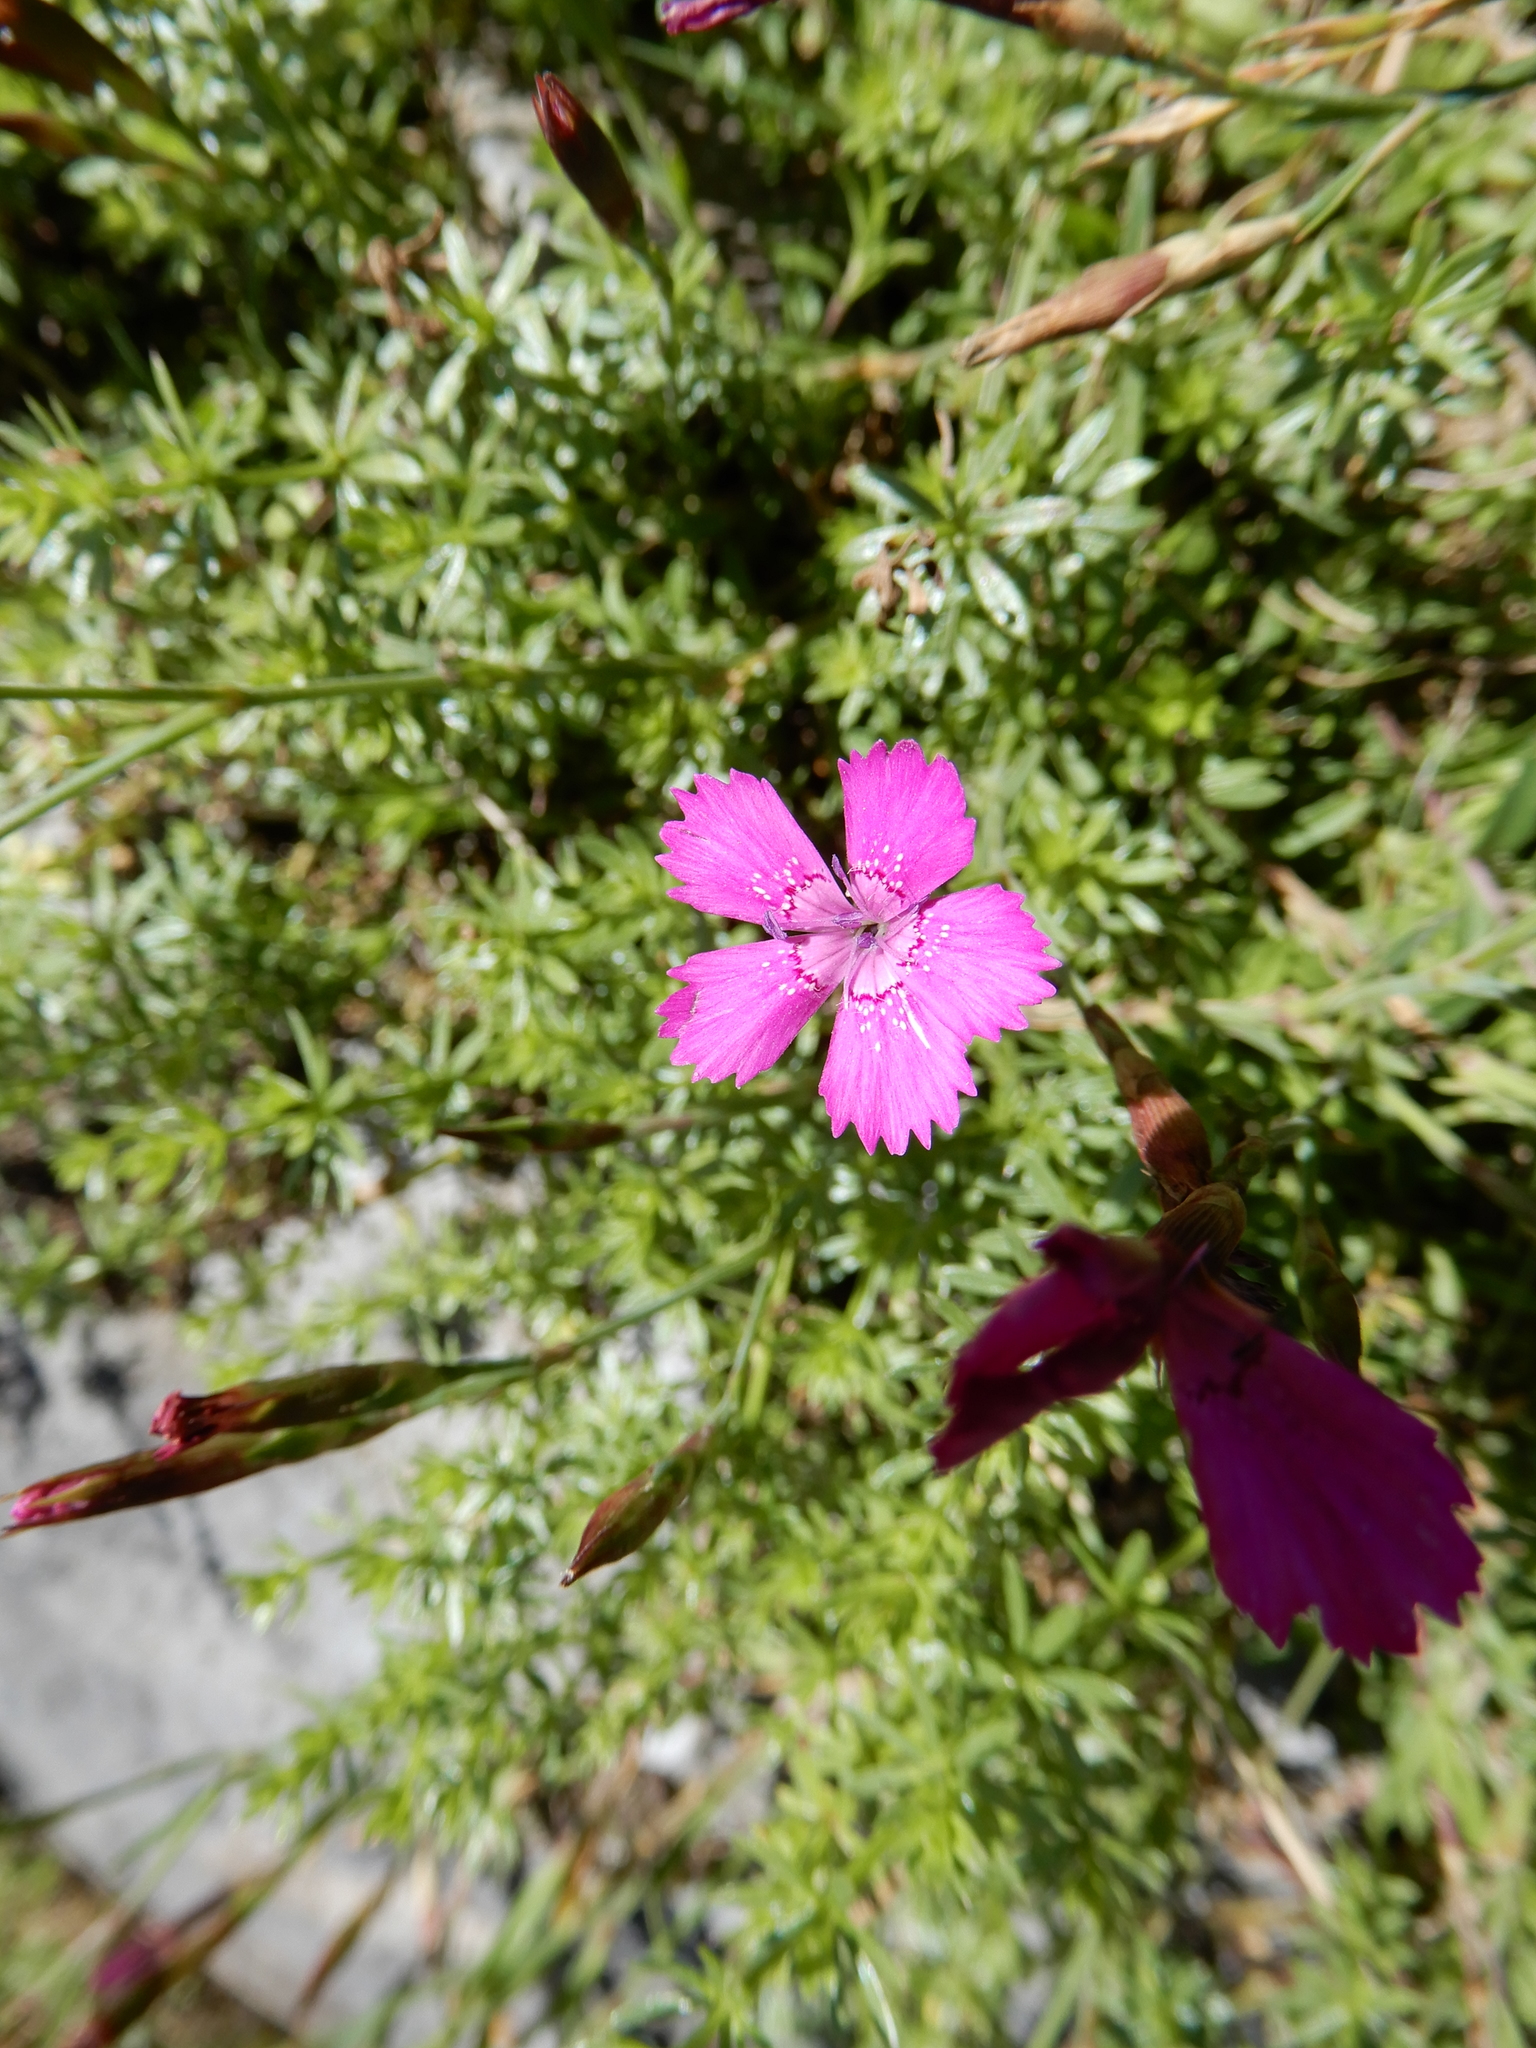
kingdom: Plantae
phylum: Tracheophyta
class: Magnoliopsida
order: Caryophyllales
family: Caryophyllaceae
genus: Dianthus
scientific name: Dianthus deltoides
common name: Maiden pink
